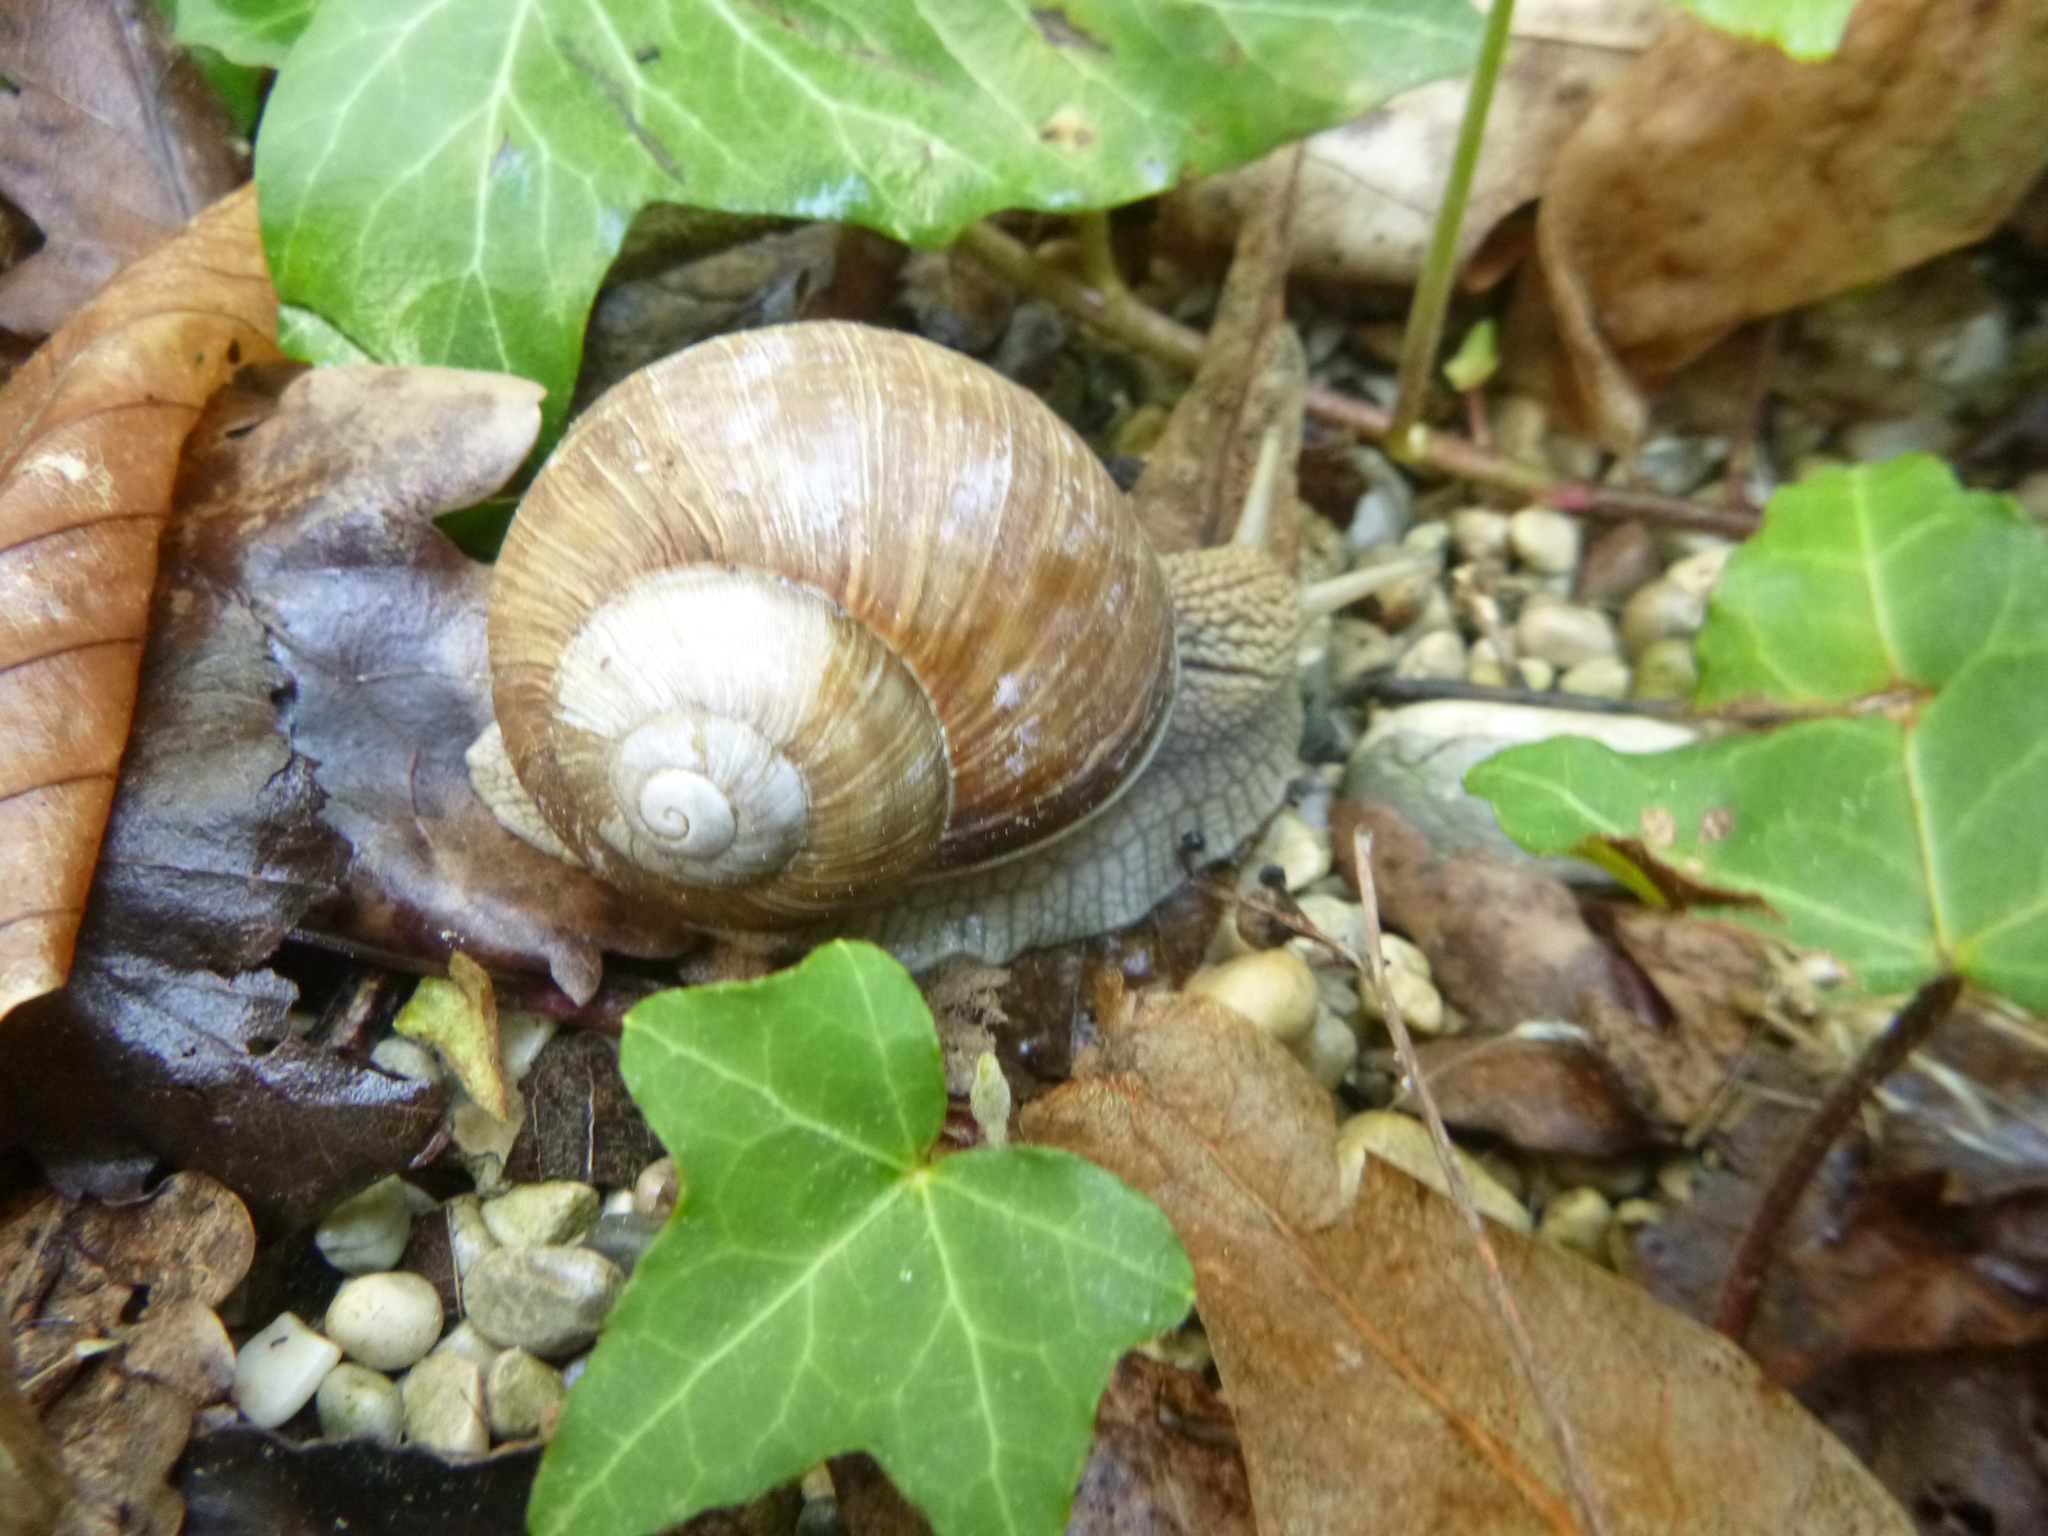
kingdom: Animalia
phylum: Mollusca
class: Gastropoda
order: Stylommatophora
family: Helicidae
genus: Helix
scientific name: Helix pomatia
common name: Roman snail
